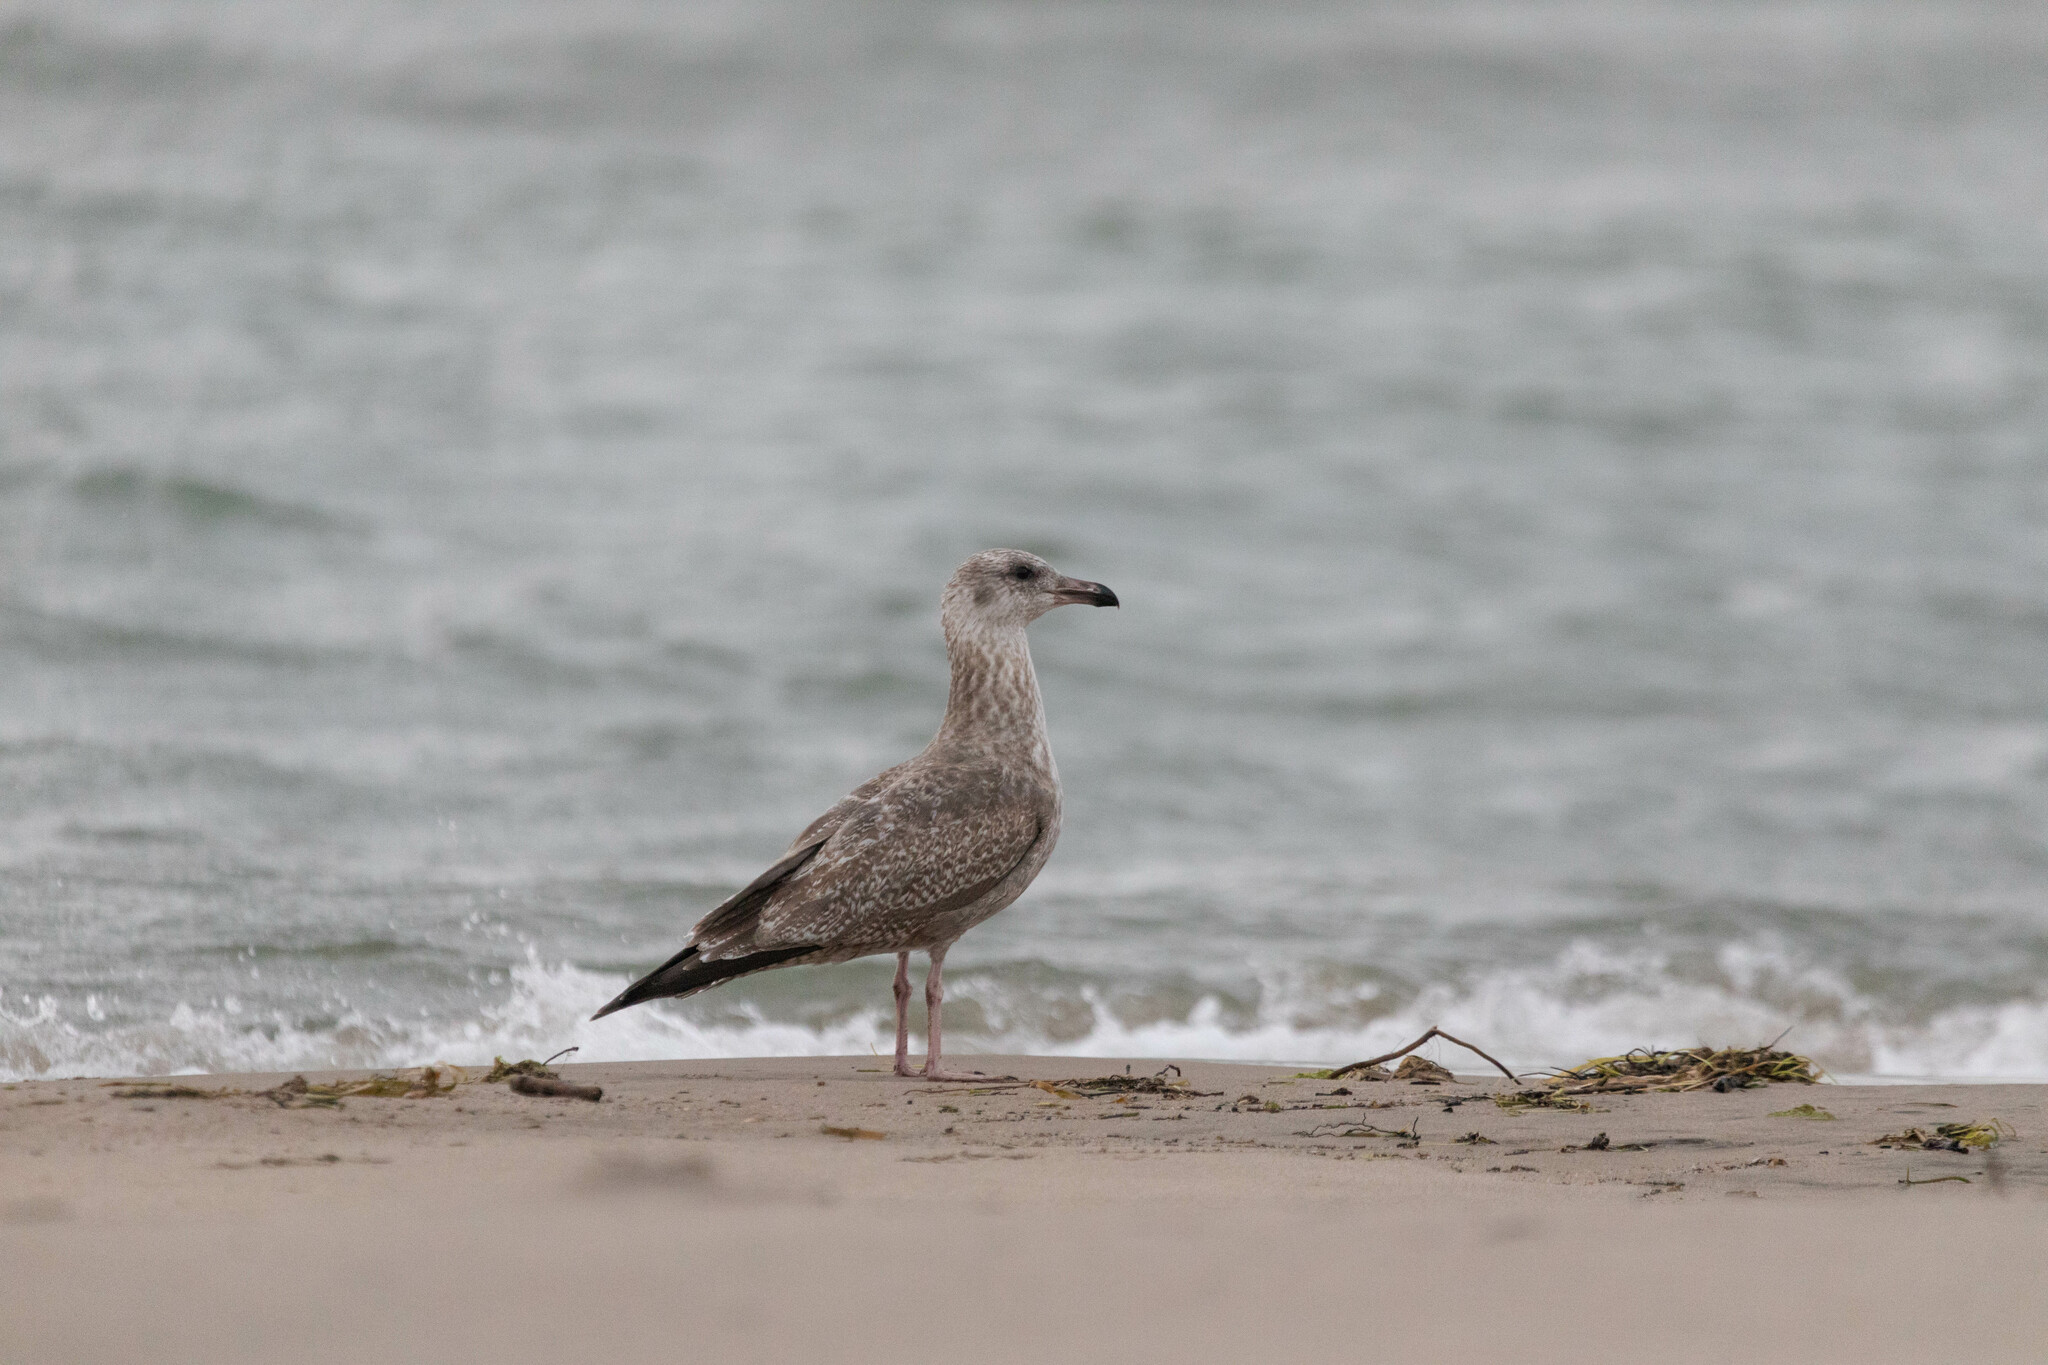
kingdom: Animalia
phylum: Chordata
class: Aves
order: Charadriiformes
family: Laridae
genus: Larus
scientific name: Larus argentatus
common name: Herring gull
